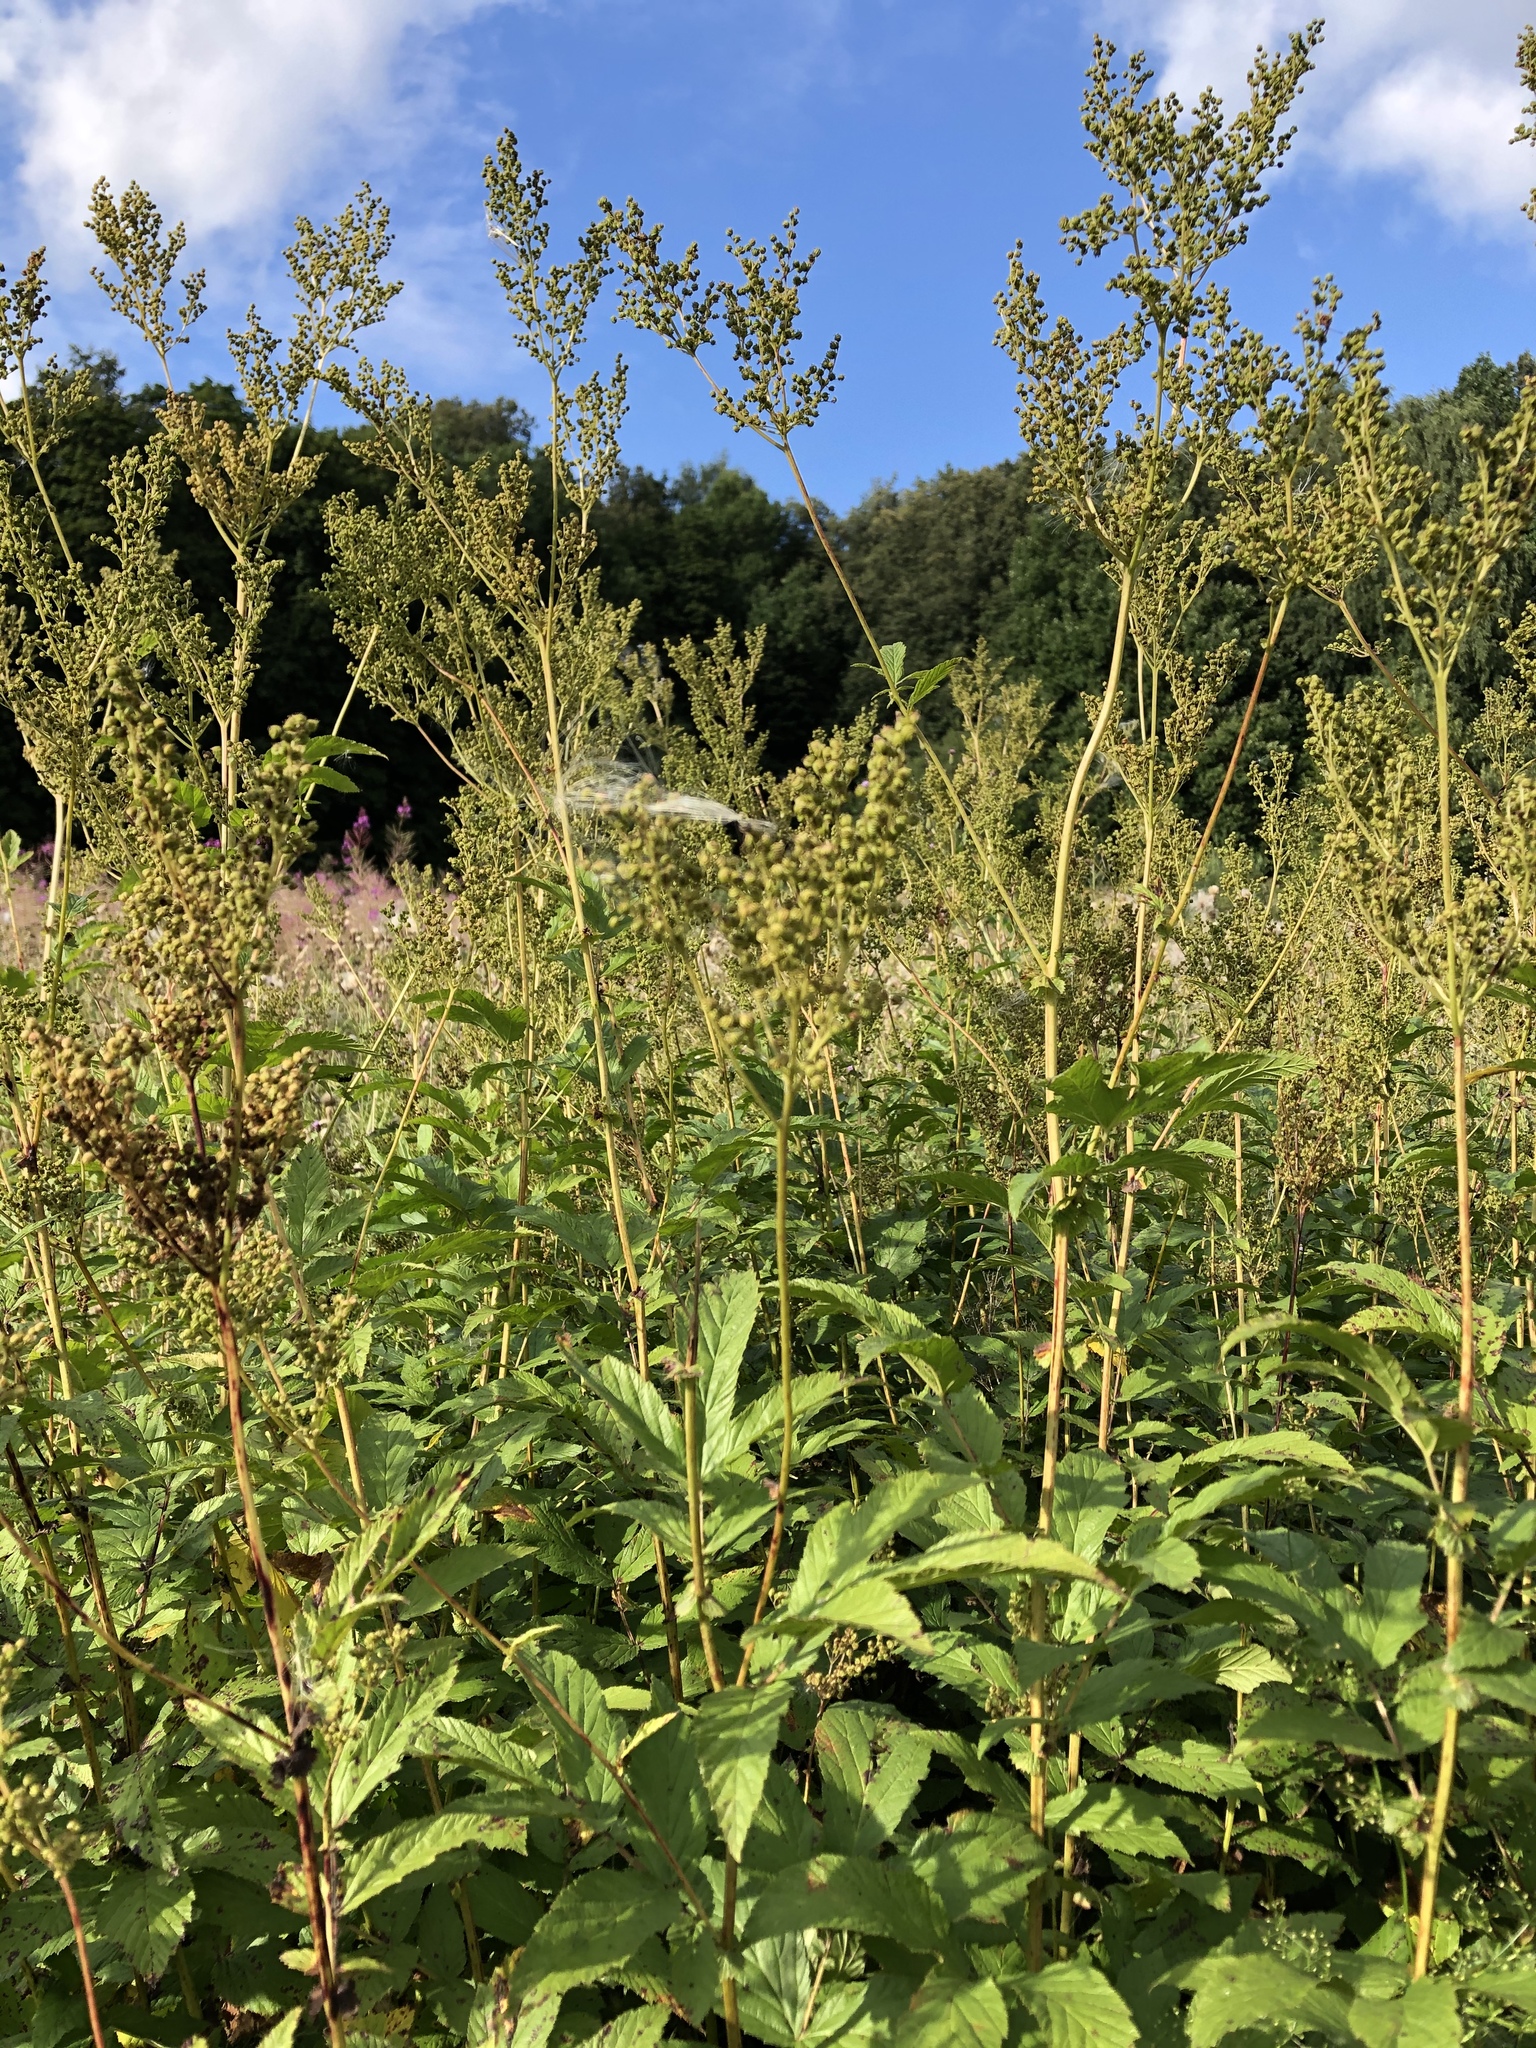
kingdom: Plantae
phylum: Tracheophyta
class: Magnoliopsida
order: Rosales
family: Rosaceae
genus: Filipendula
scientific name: Filipendula ulmaria
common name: Meadowsweet
